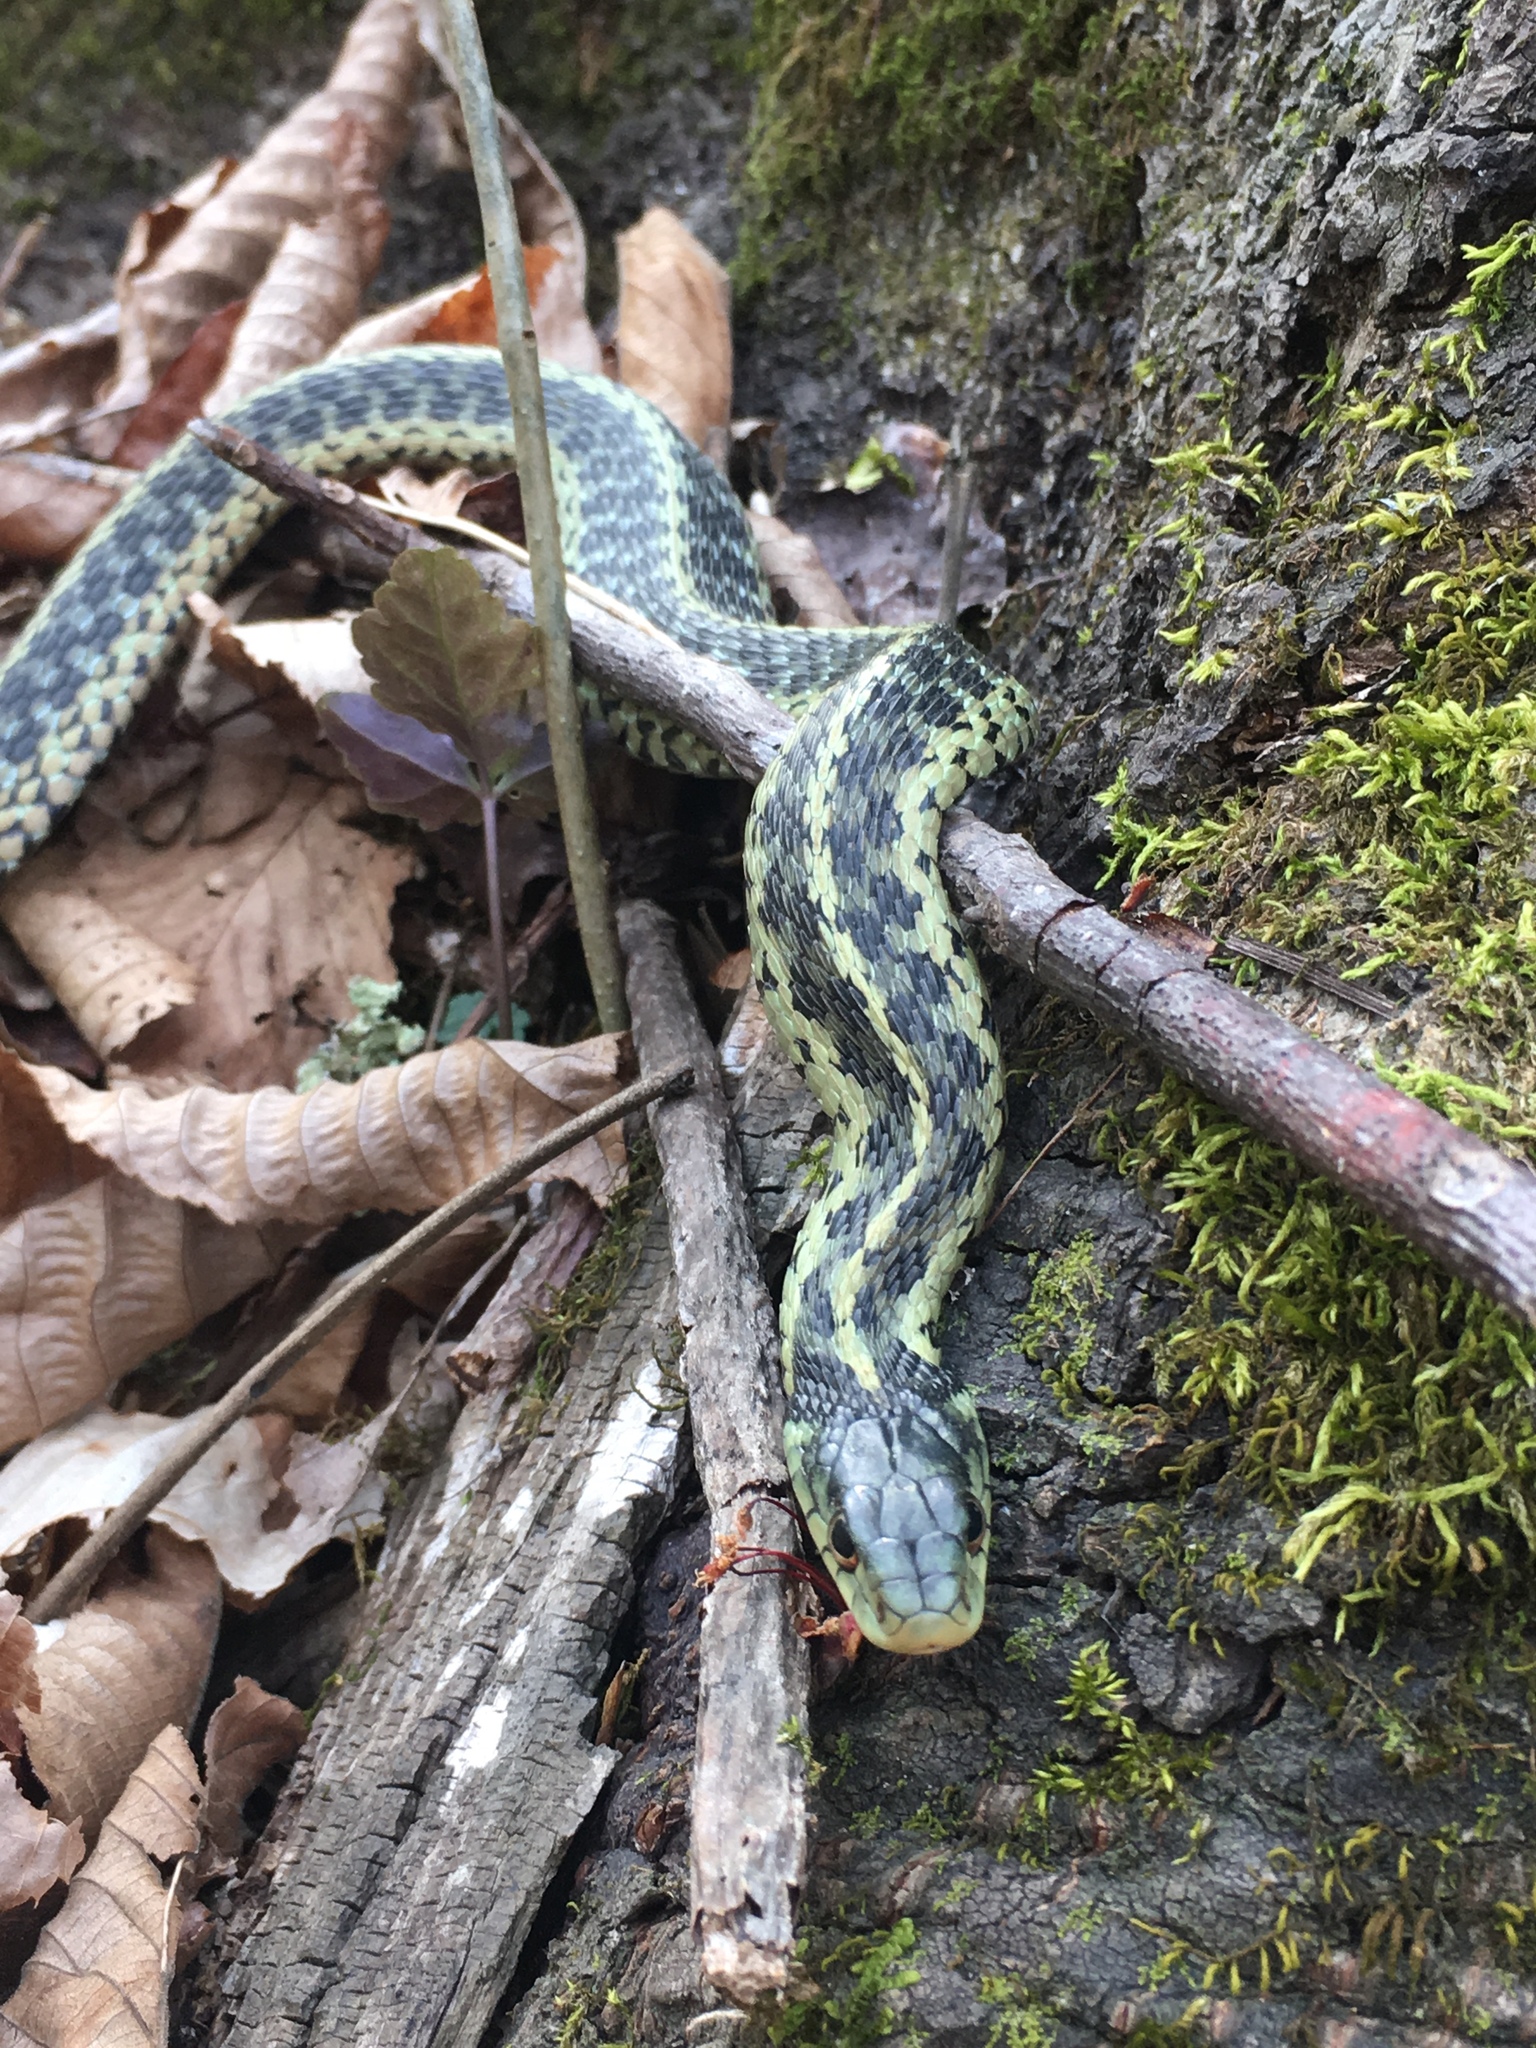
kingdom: Animalia
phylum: Chordata
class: Squamata
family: Colubridae
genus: Thamnophis
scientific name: Thamnophis sirtalis
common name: Common garter snake
